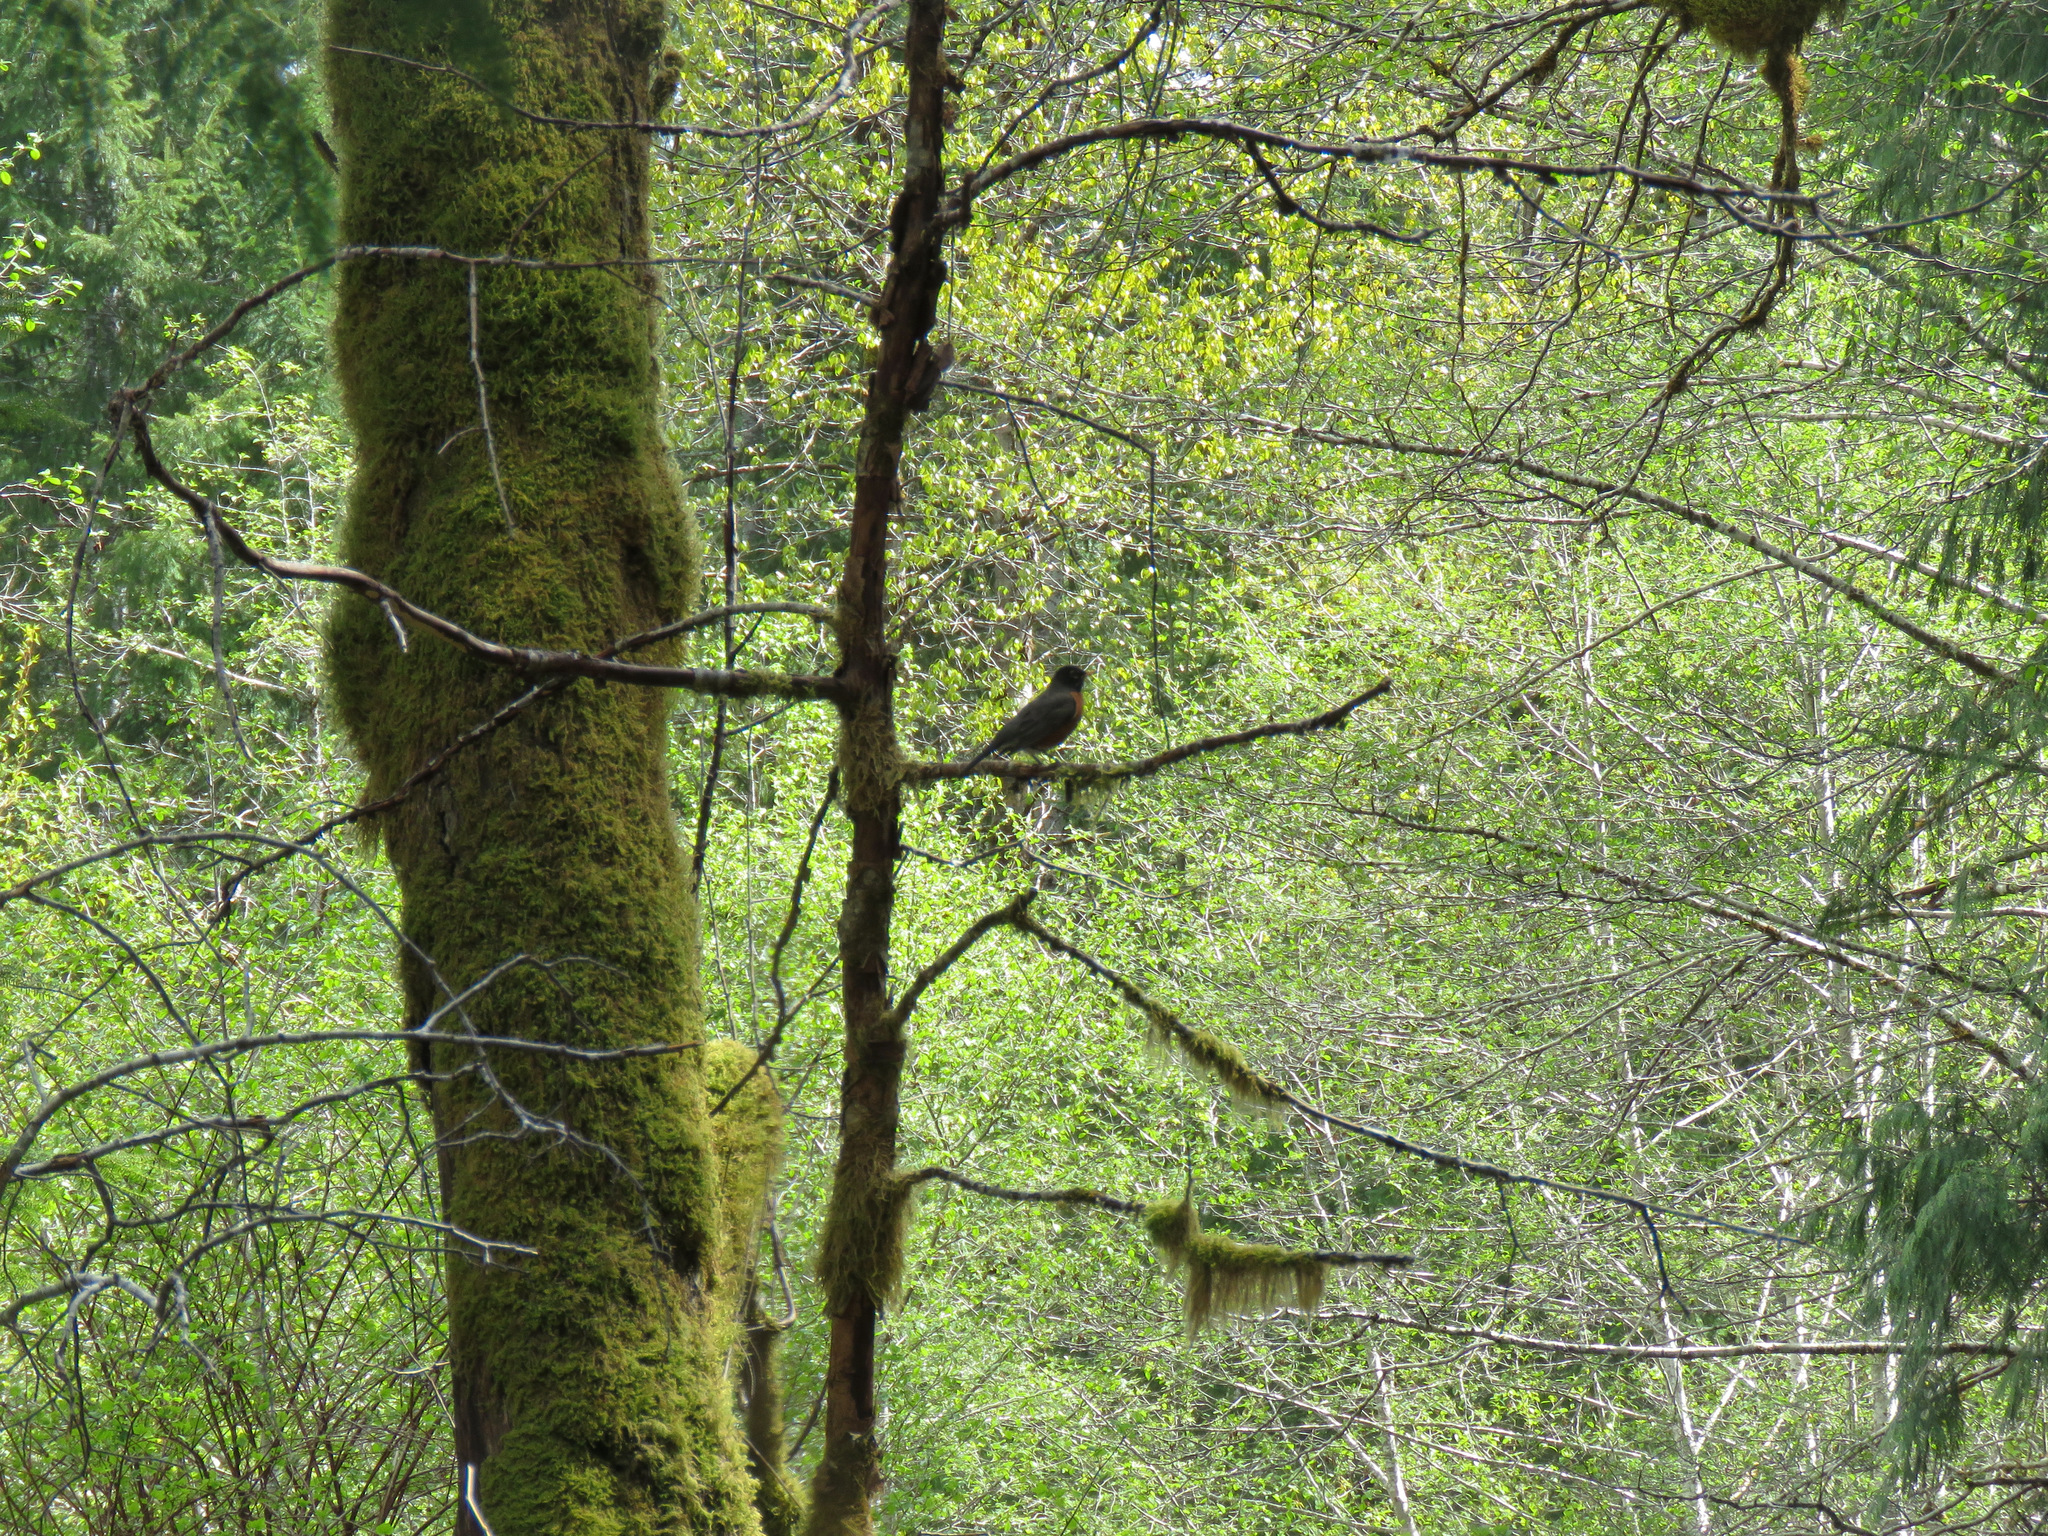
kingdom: Animalia
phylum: Chordata
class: Aves
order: Passeriformes
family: Turdidae
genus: Turdus
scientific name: Turdus migratorius
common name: American robin
